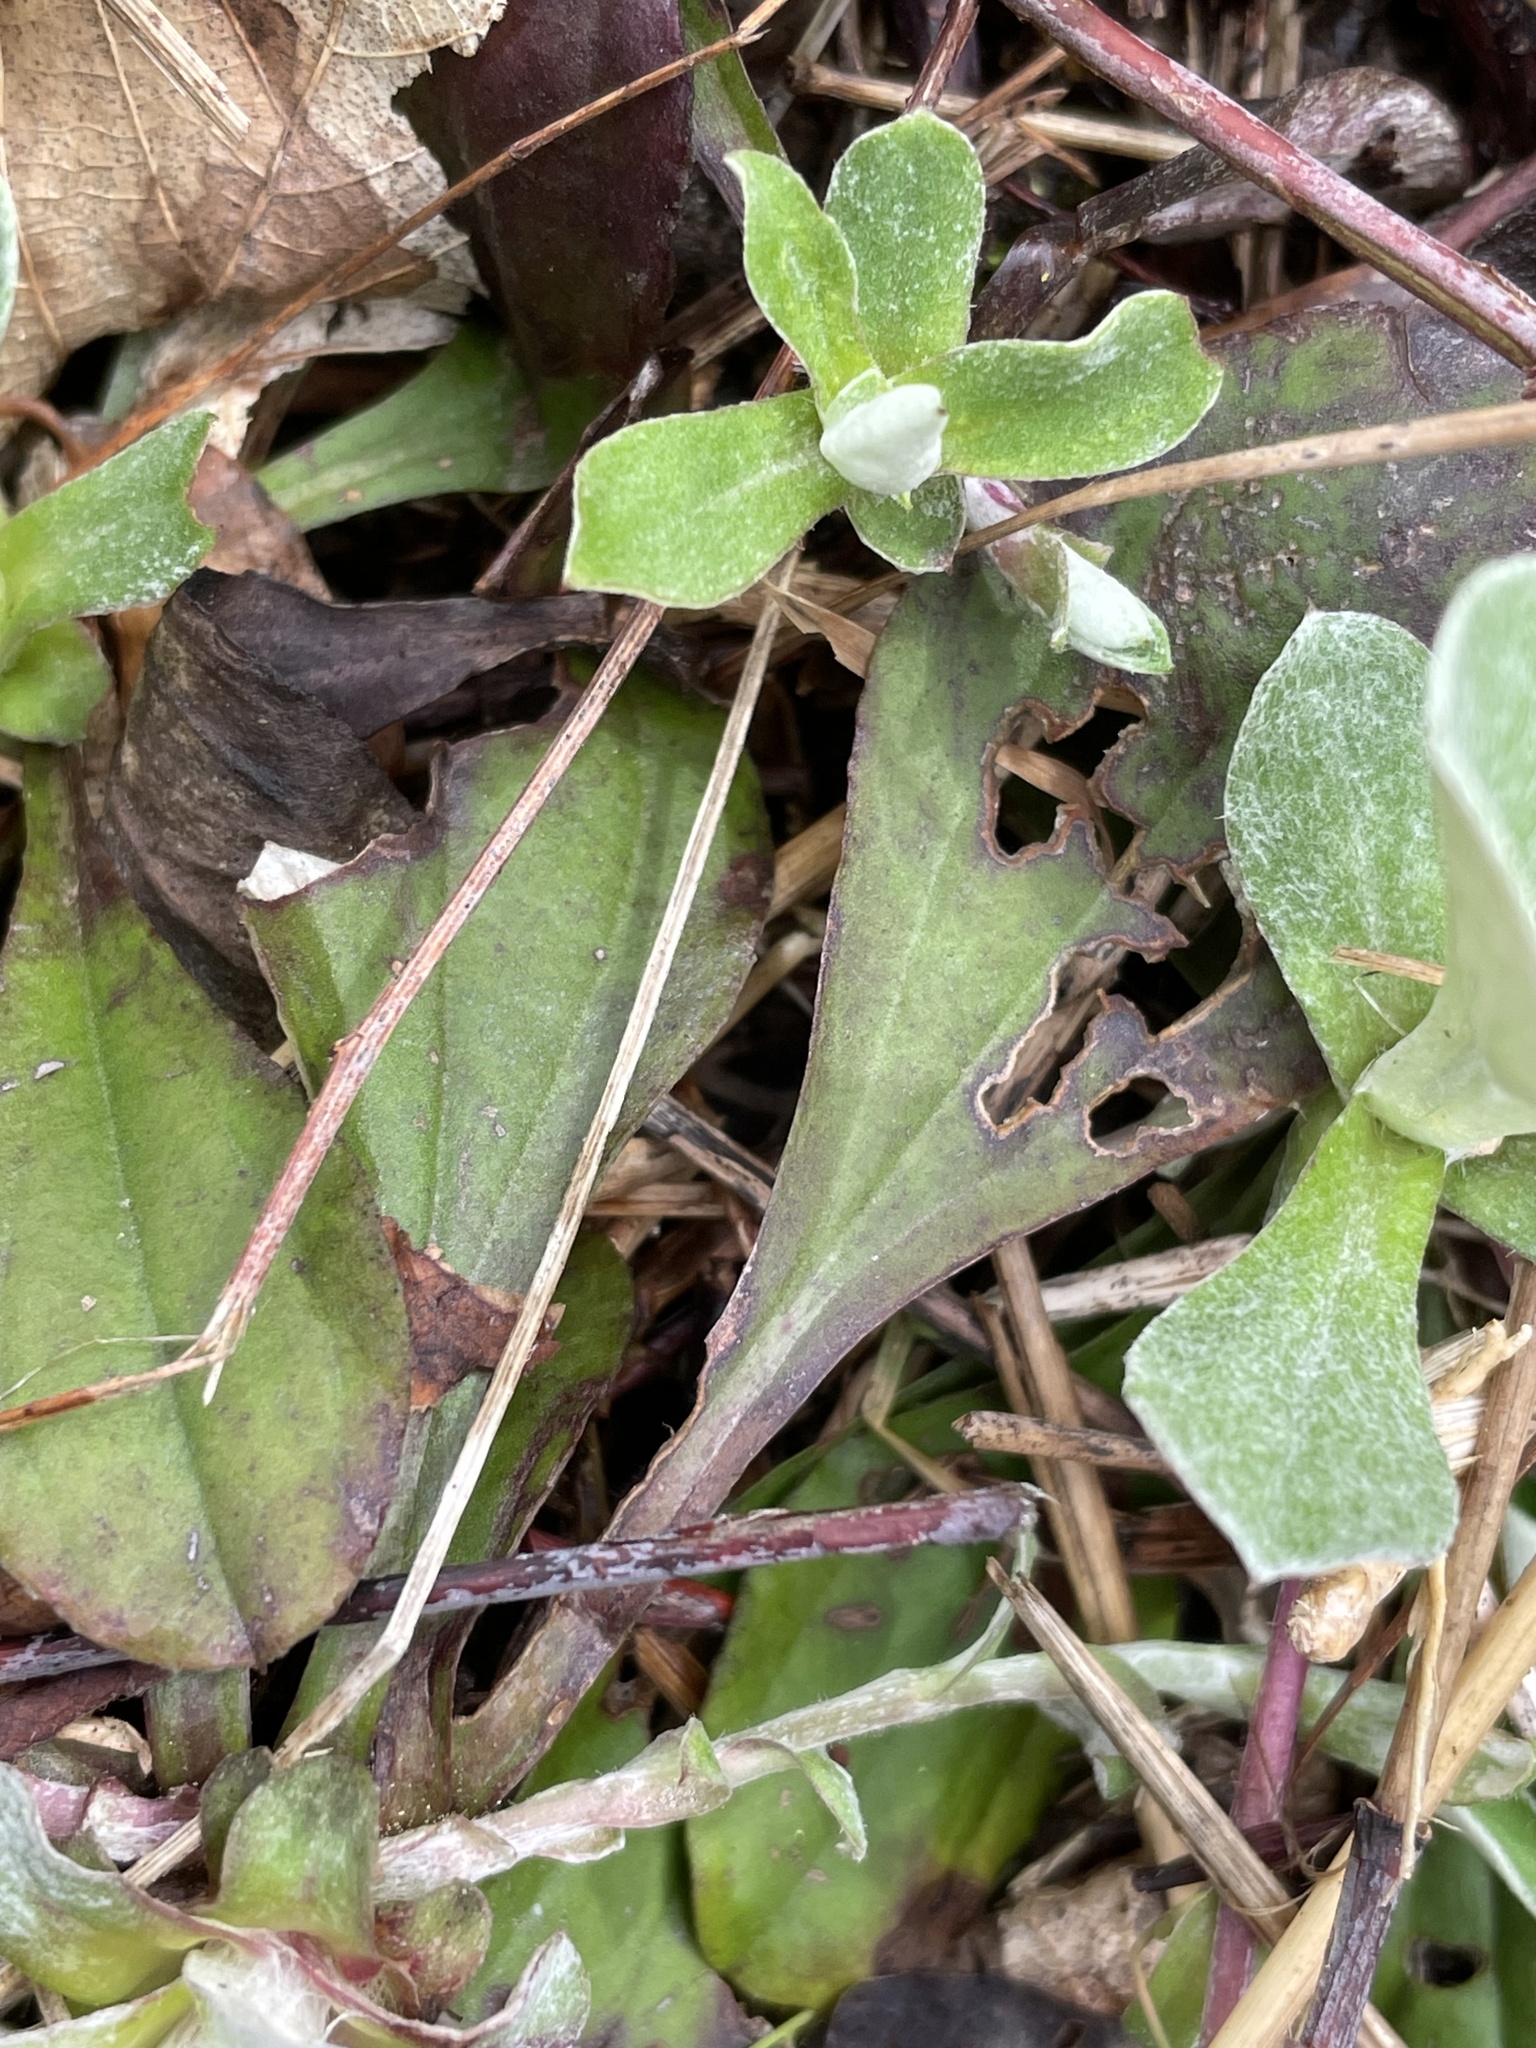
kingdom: Plantae
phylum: Tracheophyta
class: Magnoliopsida
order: Asterales
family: Asteraceae
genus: Antennaria
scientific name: Antennaria parlinii
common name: Parlin's pussytoes
